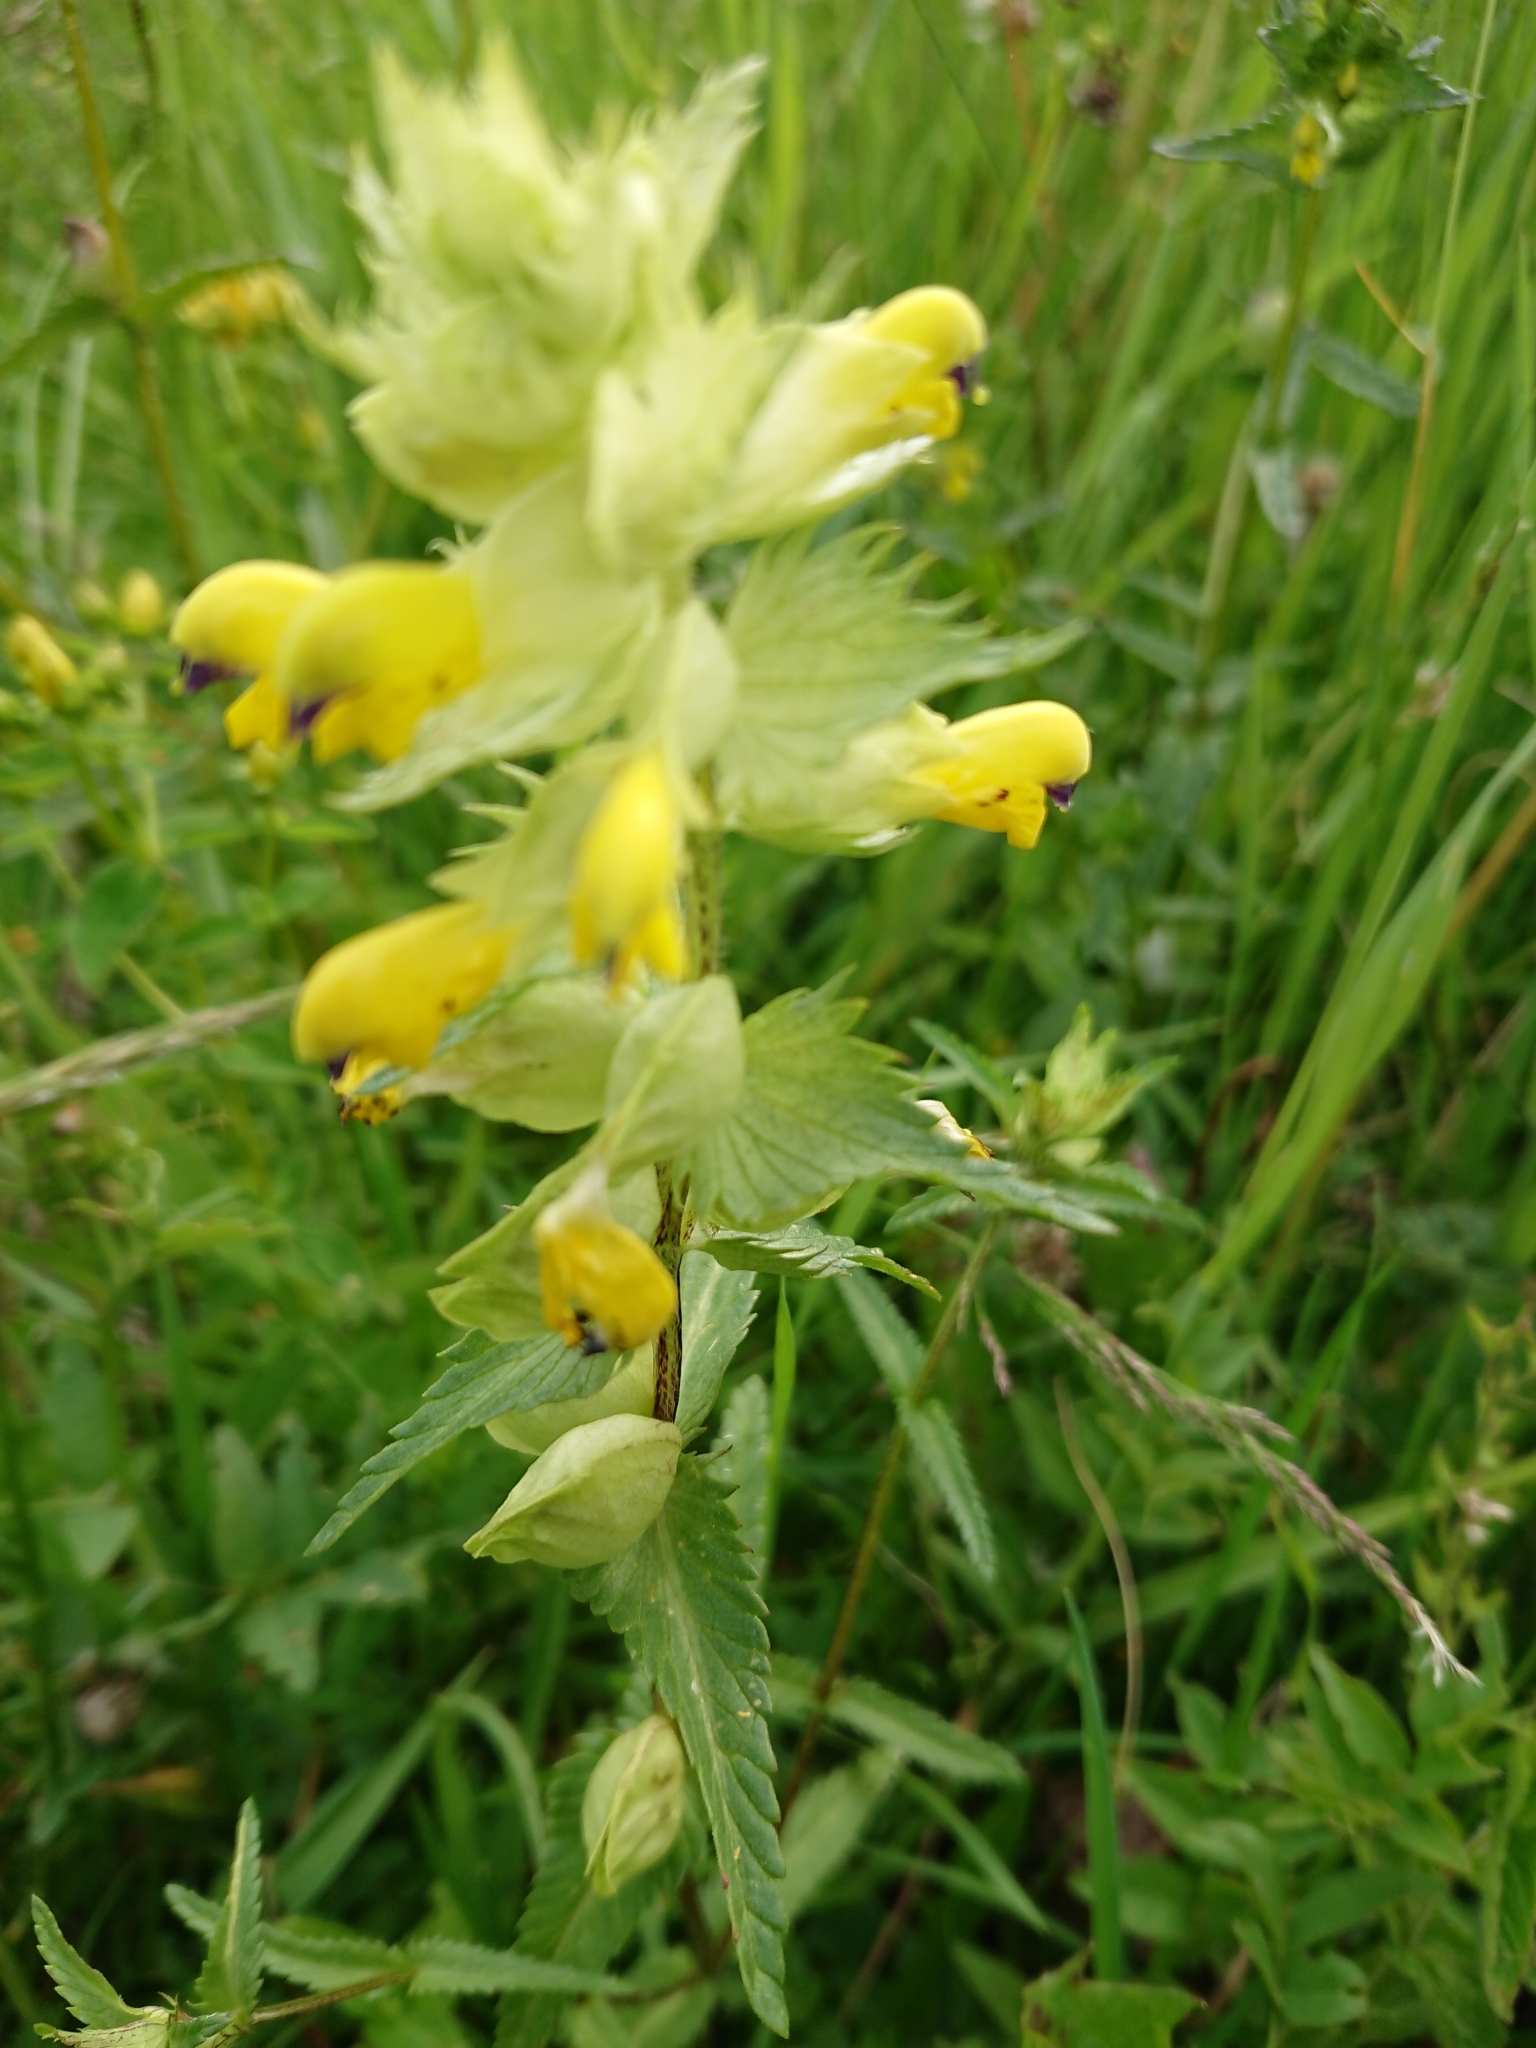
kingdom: Plantae
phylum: Tracheophyta
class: Magnoliopsida
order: Lamiales
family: Orobanchaceae
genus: Rhinanthus
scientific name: Rhinanthus serotinus
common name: Late-flowering yellow rattle
